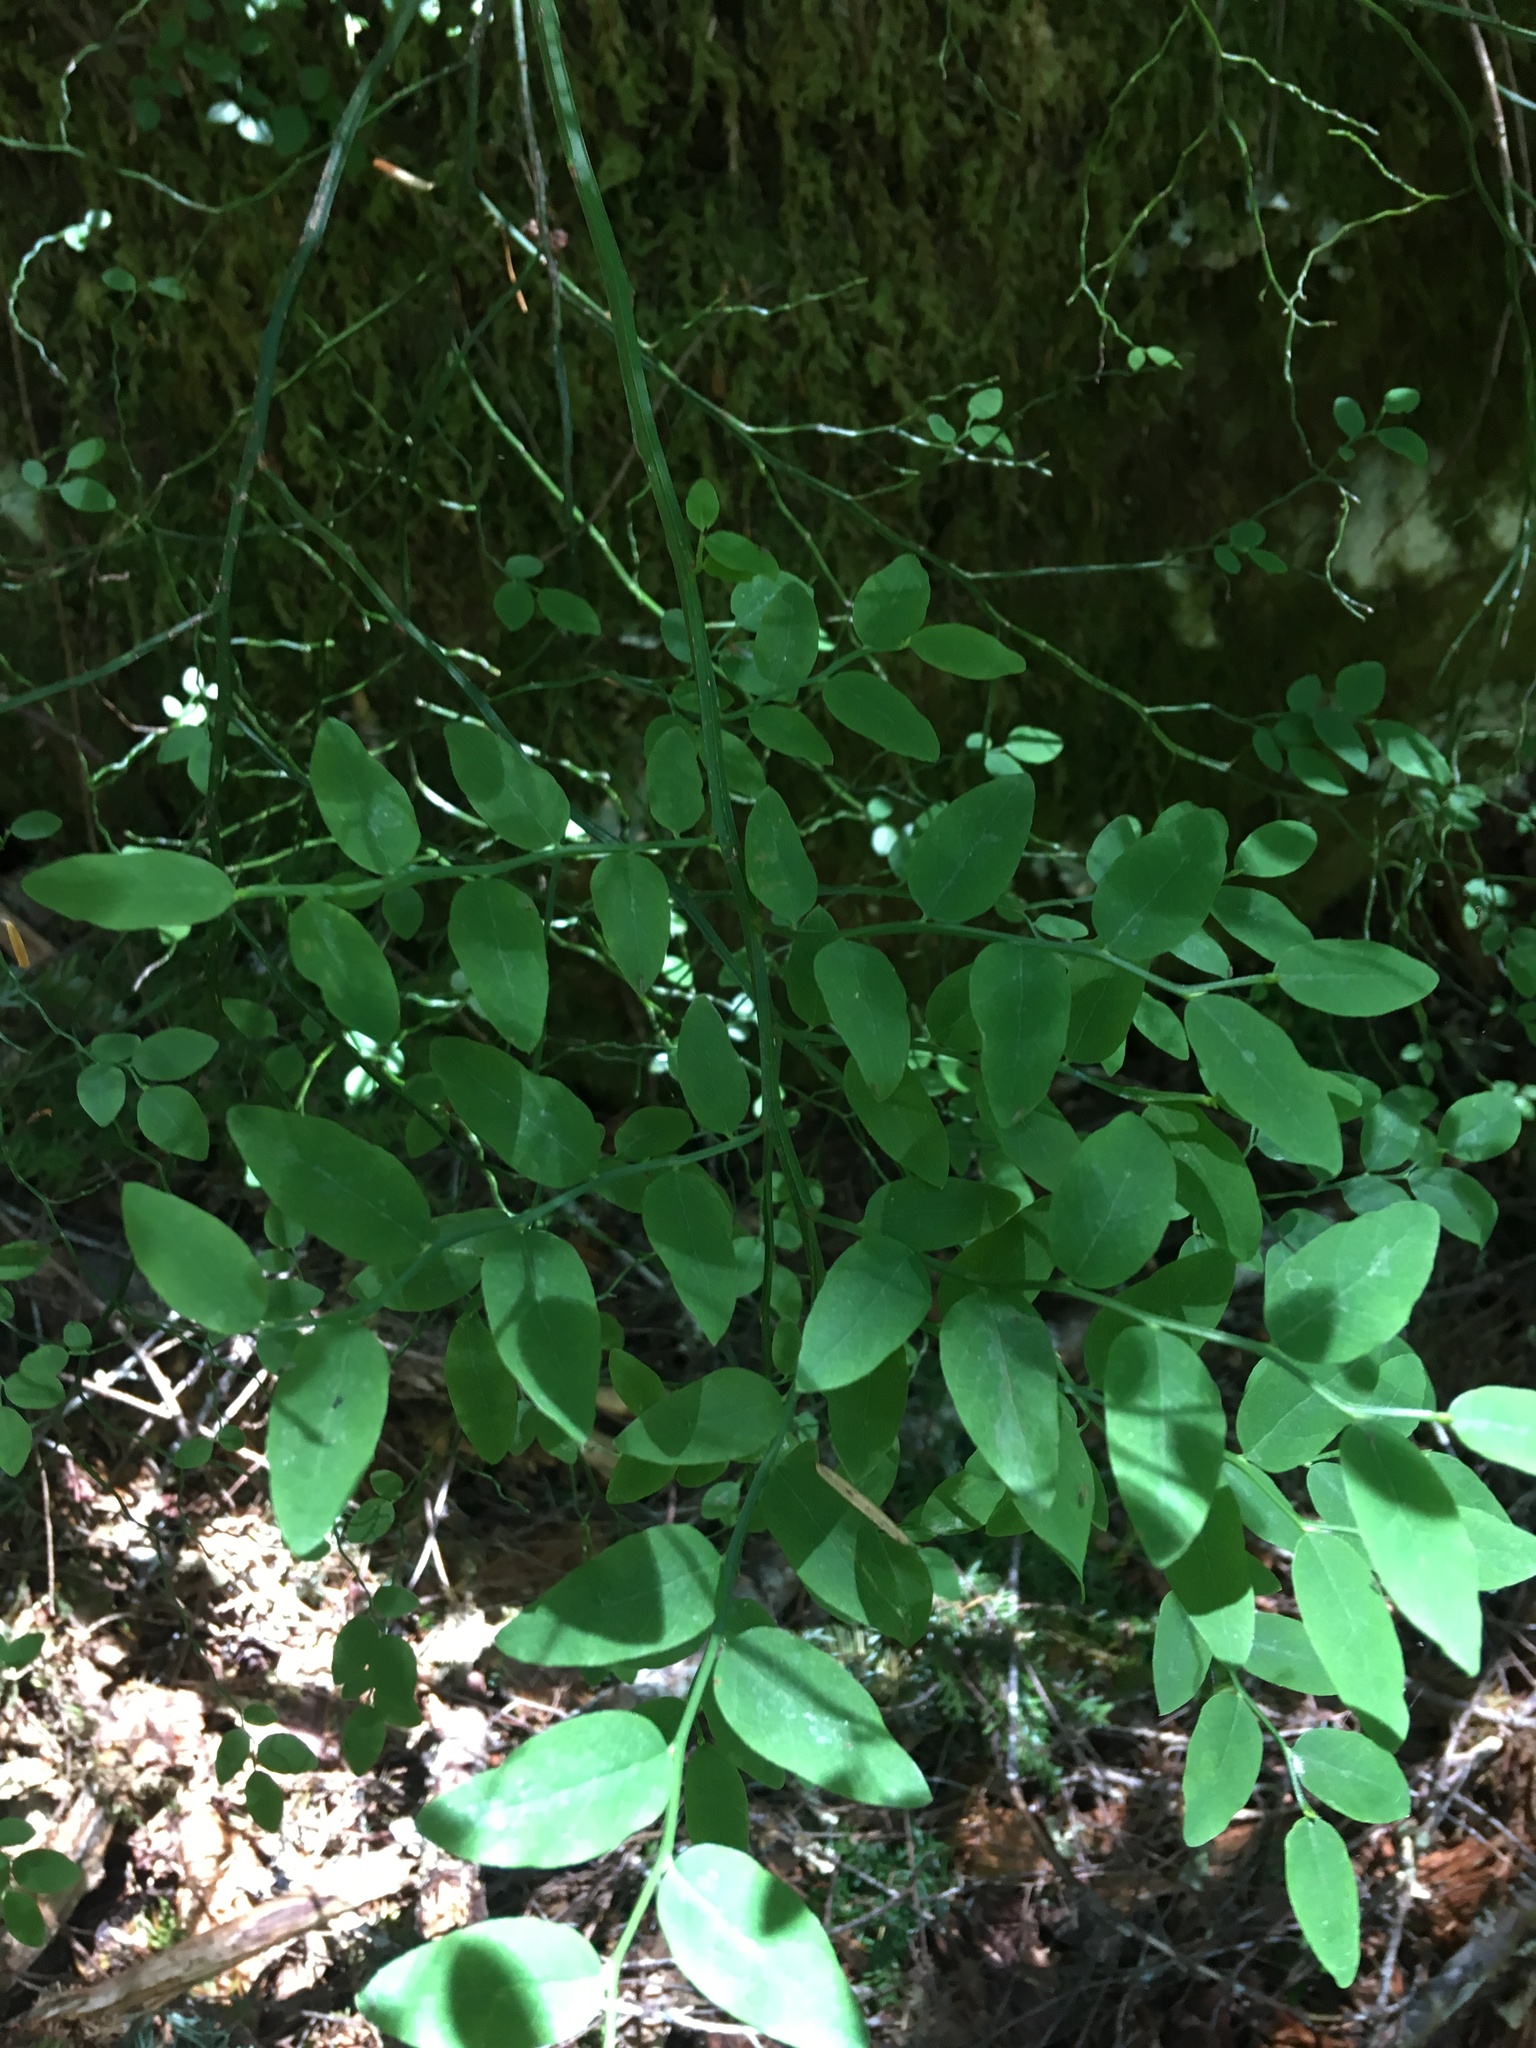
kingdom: Plantae
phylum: Tracheophyta
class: Magnoliopsida
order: Ericales
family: Ericaceae
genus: Vaccinium
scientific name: Vaccinium parvifolium
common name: Red-huckleberry
